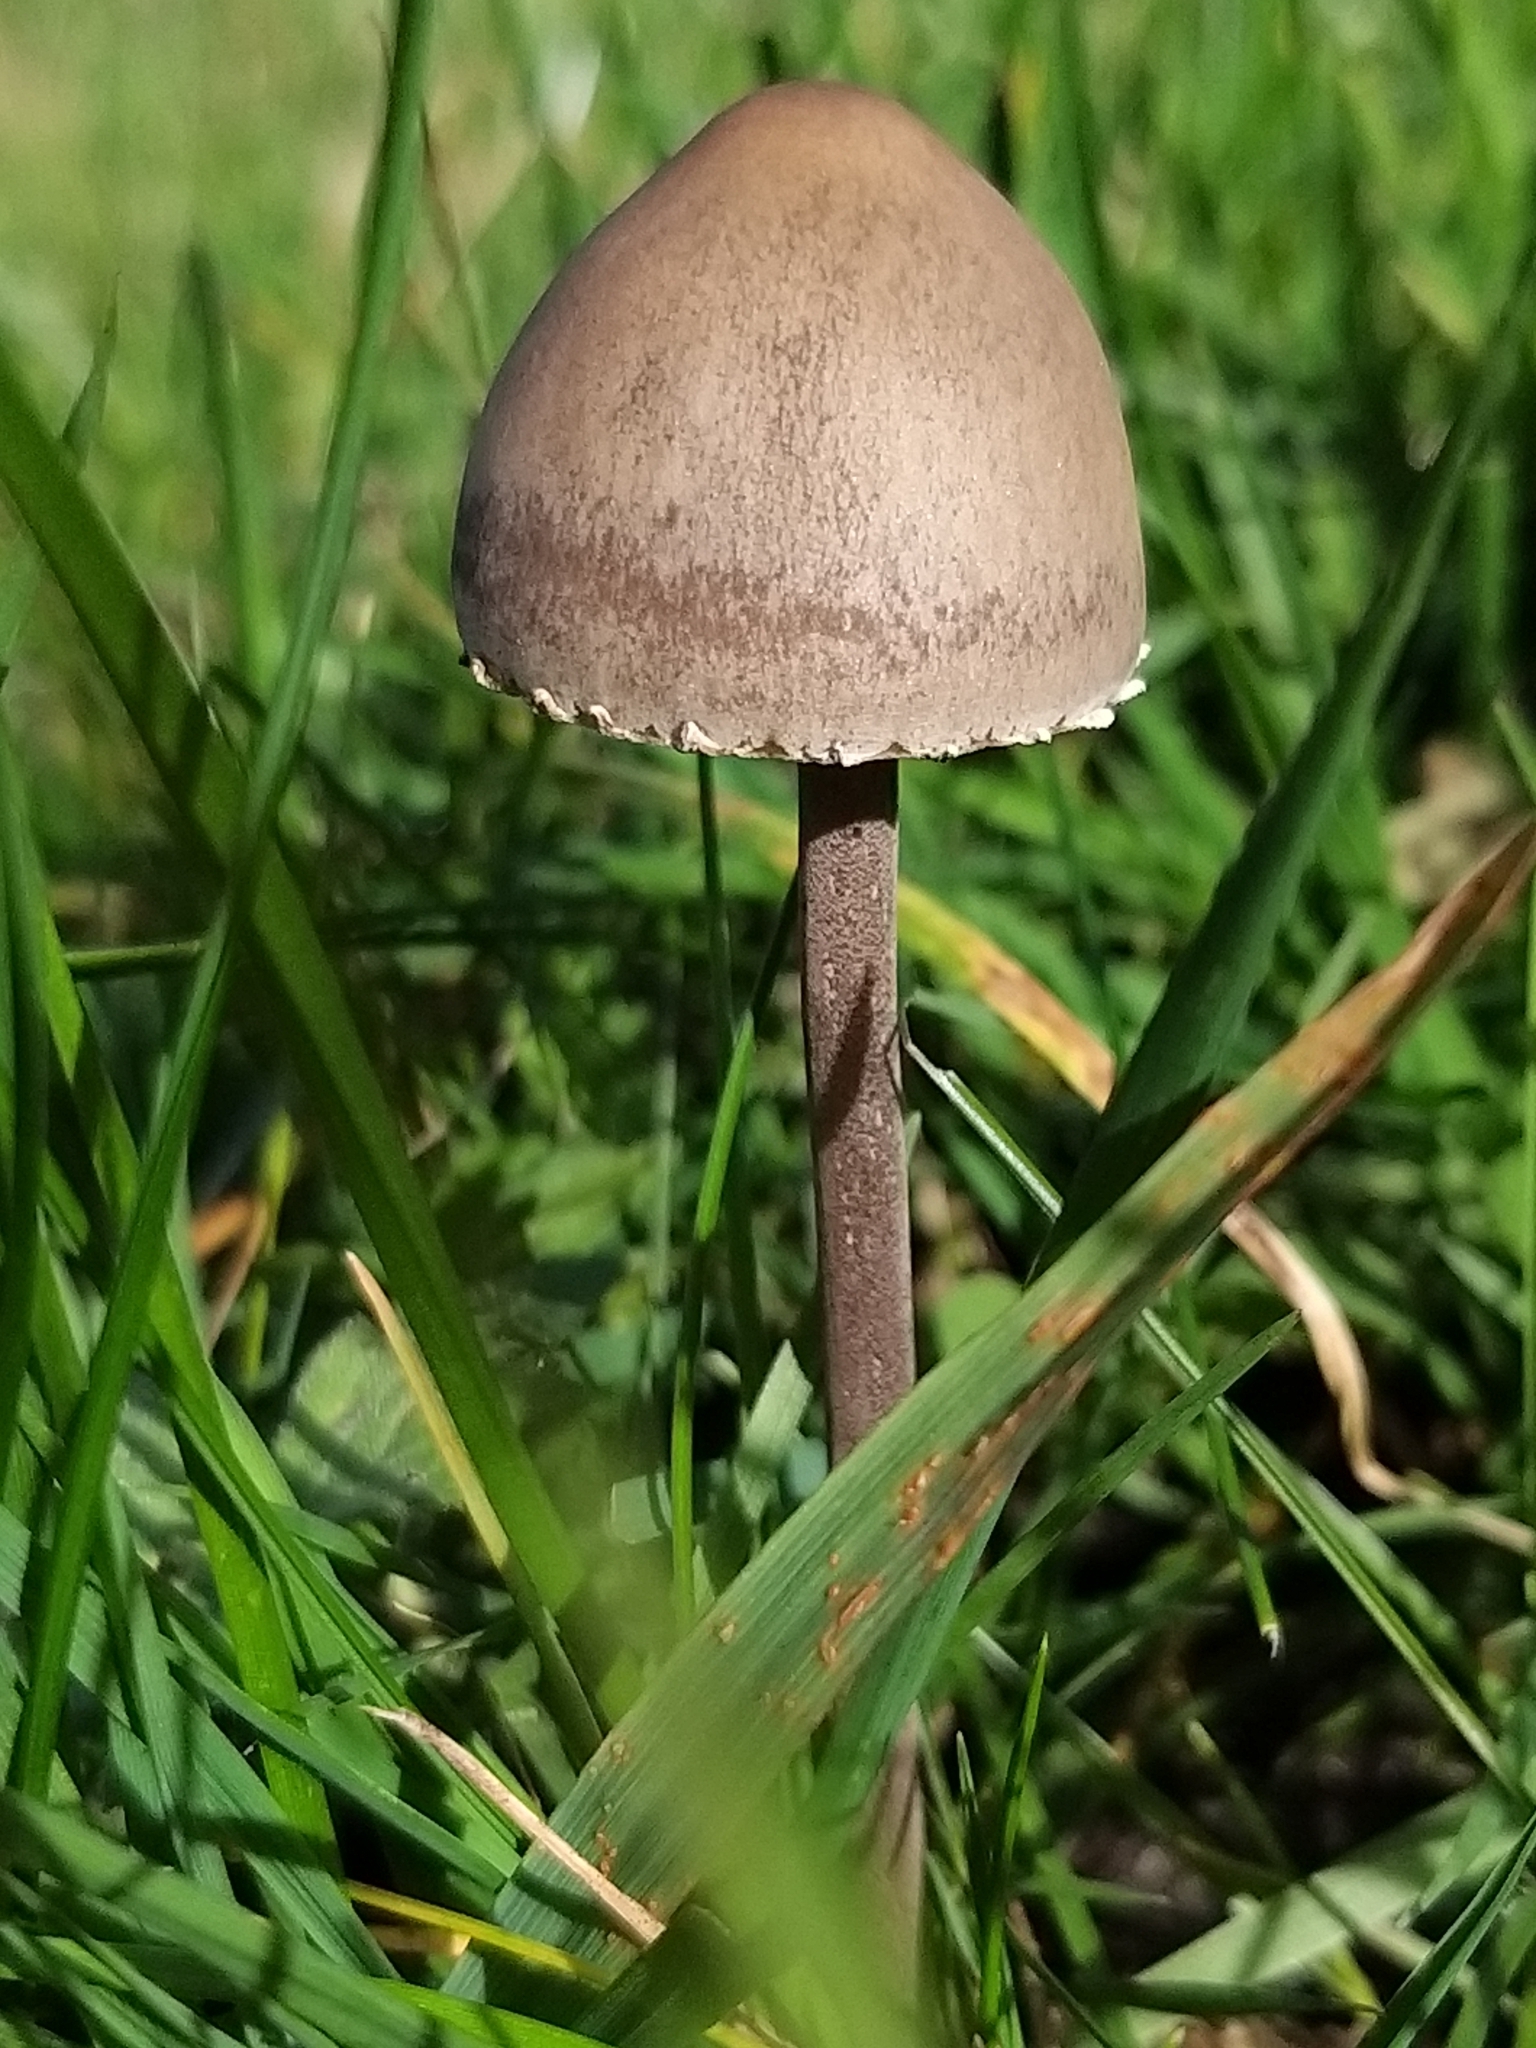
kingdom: Fungi
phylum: Basidiomycota
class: Agaricomycetes
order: Agaricales
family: Bolbitiaceae
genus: Panaeolus
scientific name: Panaeolus papilionaceus
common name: Petticoat mottlegill
